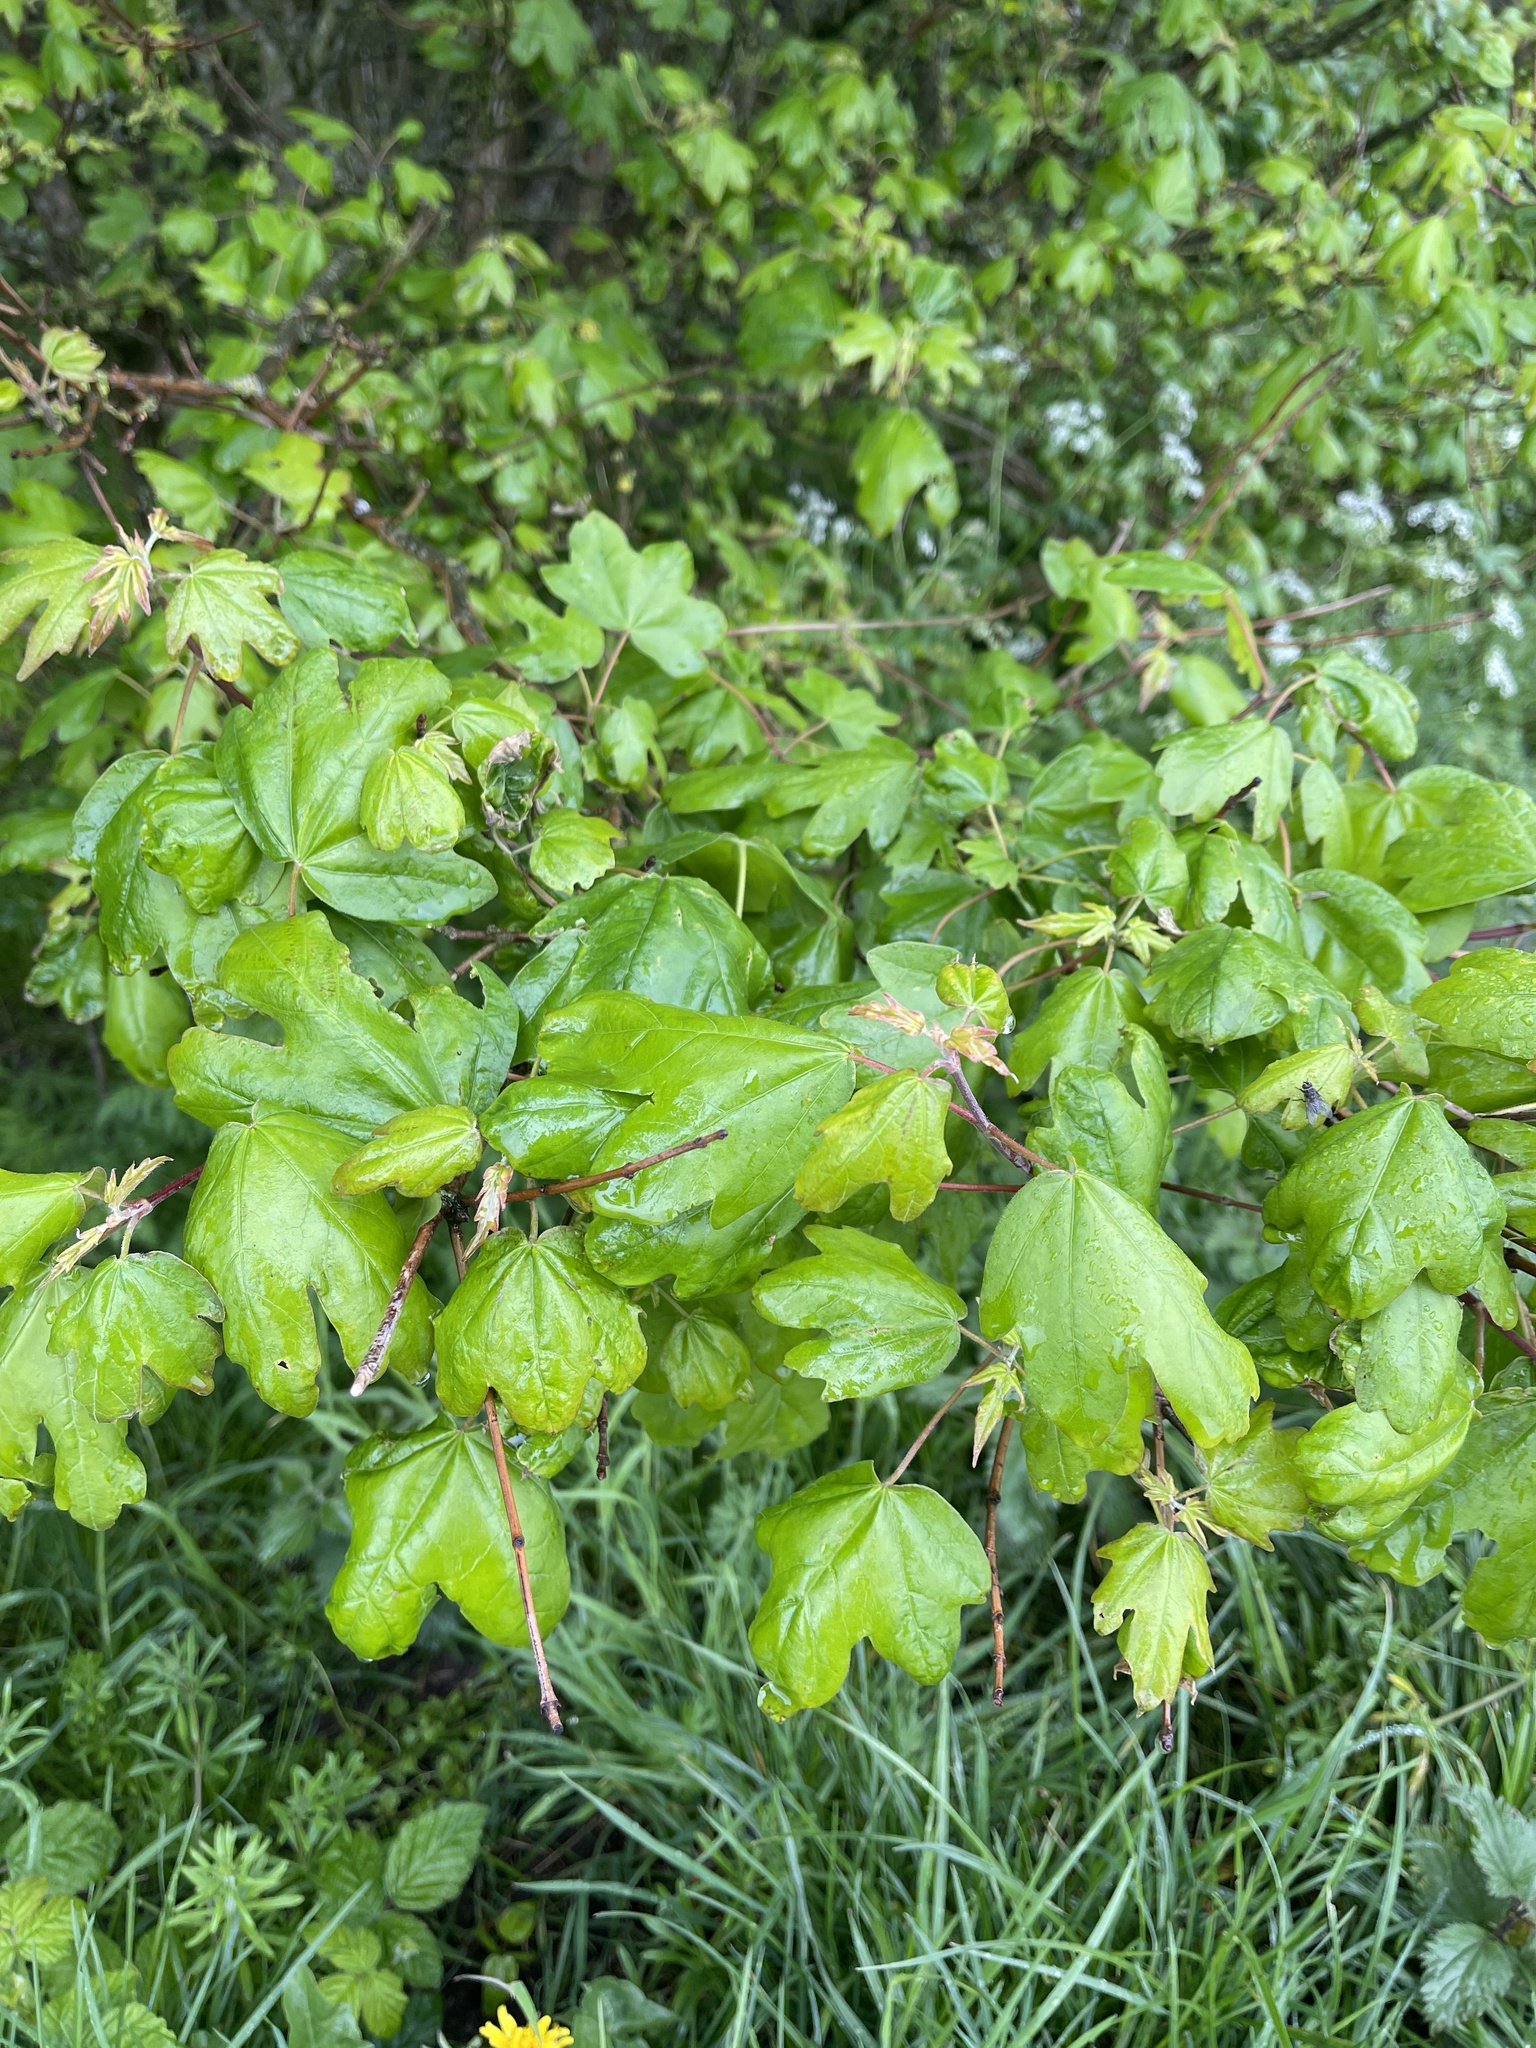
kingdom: Plantae
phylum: Tracheophyta
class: Magnoliopsida
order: Sapindales
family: Sapindaceae
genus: Acer
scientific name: Acer campestre
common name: Field maple
